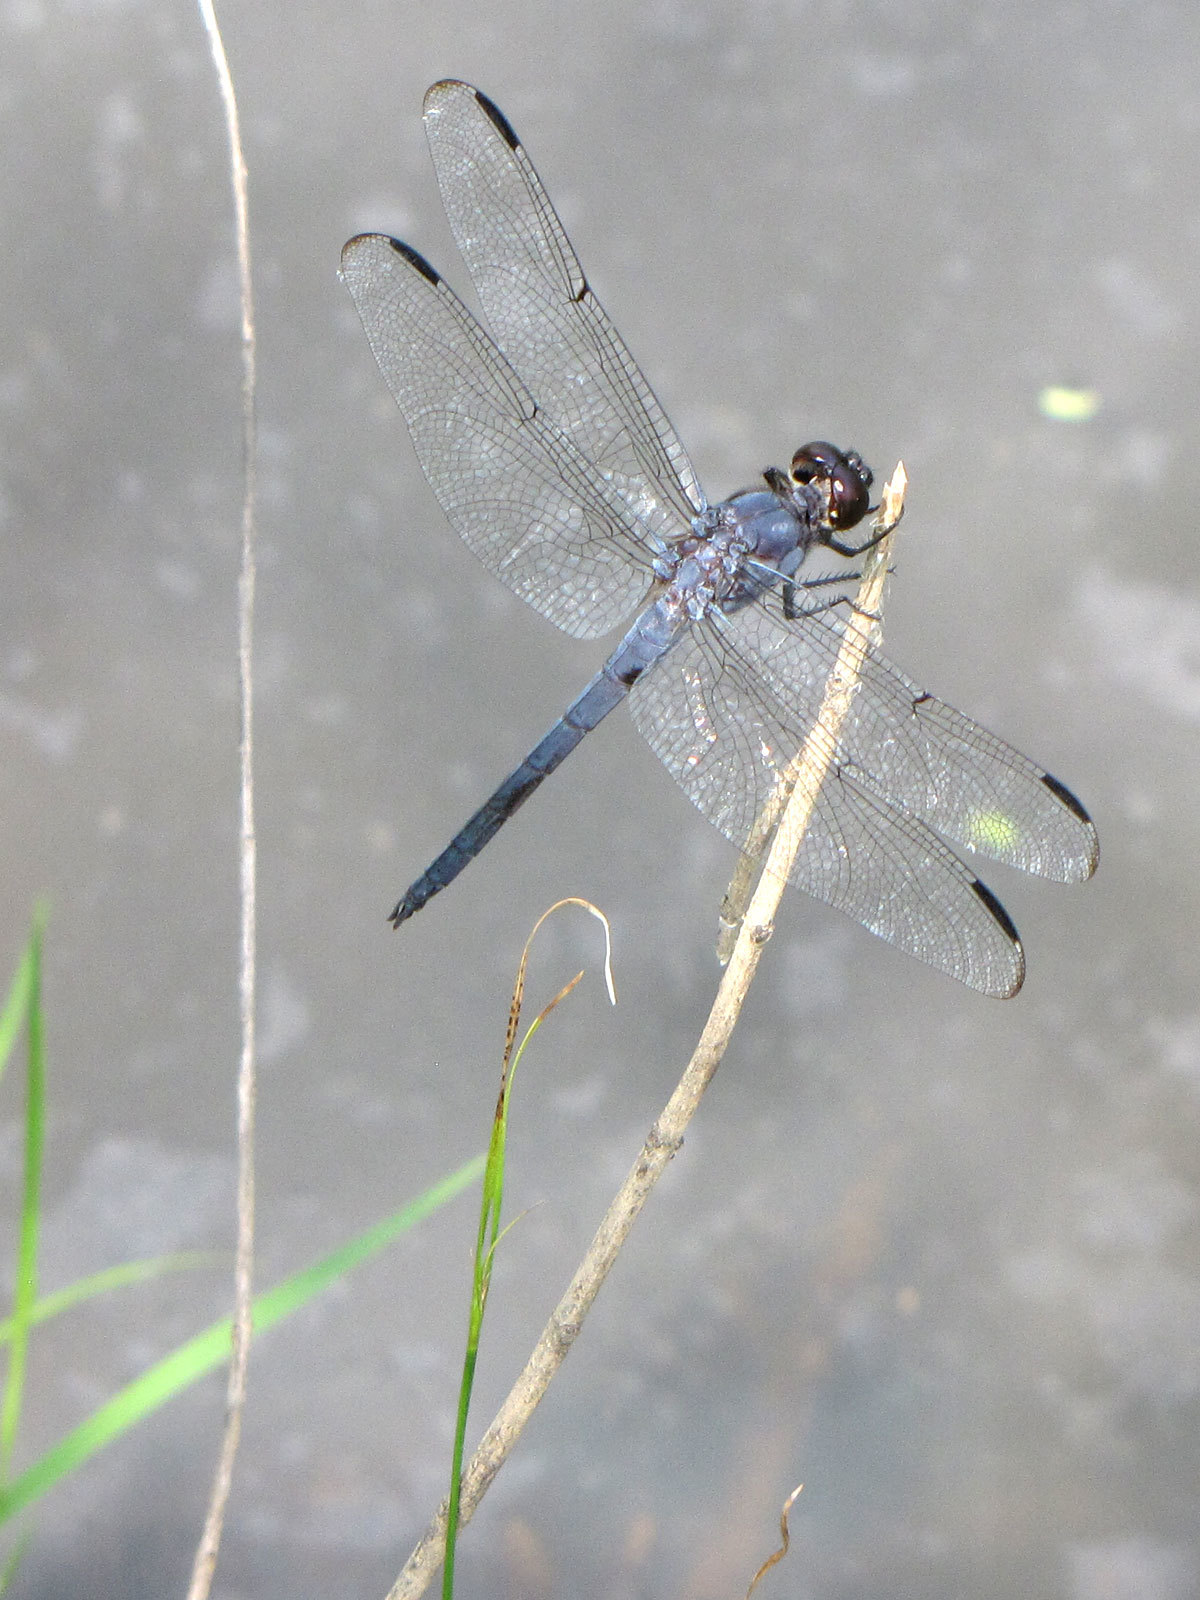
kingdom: Animalia
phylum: Arthropoda
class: Insecta
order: Odonata
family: Libellulidae
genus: Libellula
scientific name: Libellula incesta
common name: Slaty skimmer
